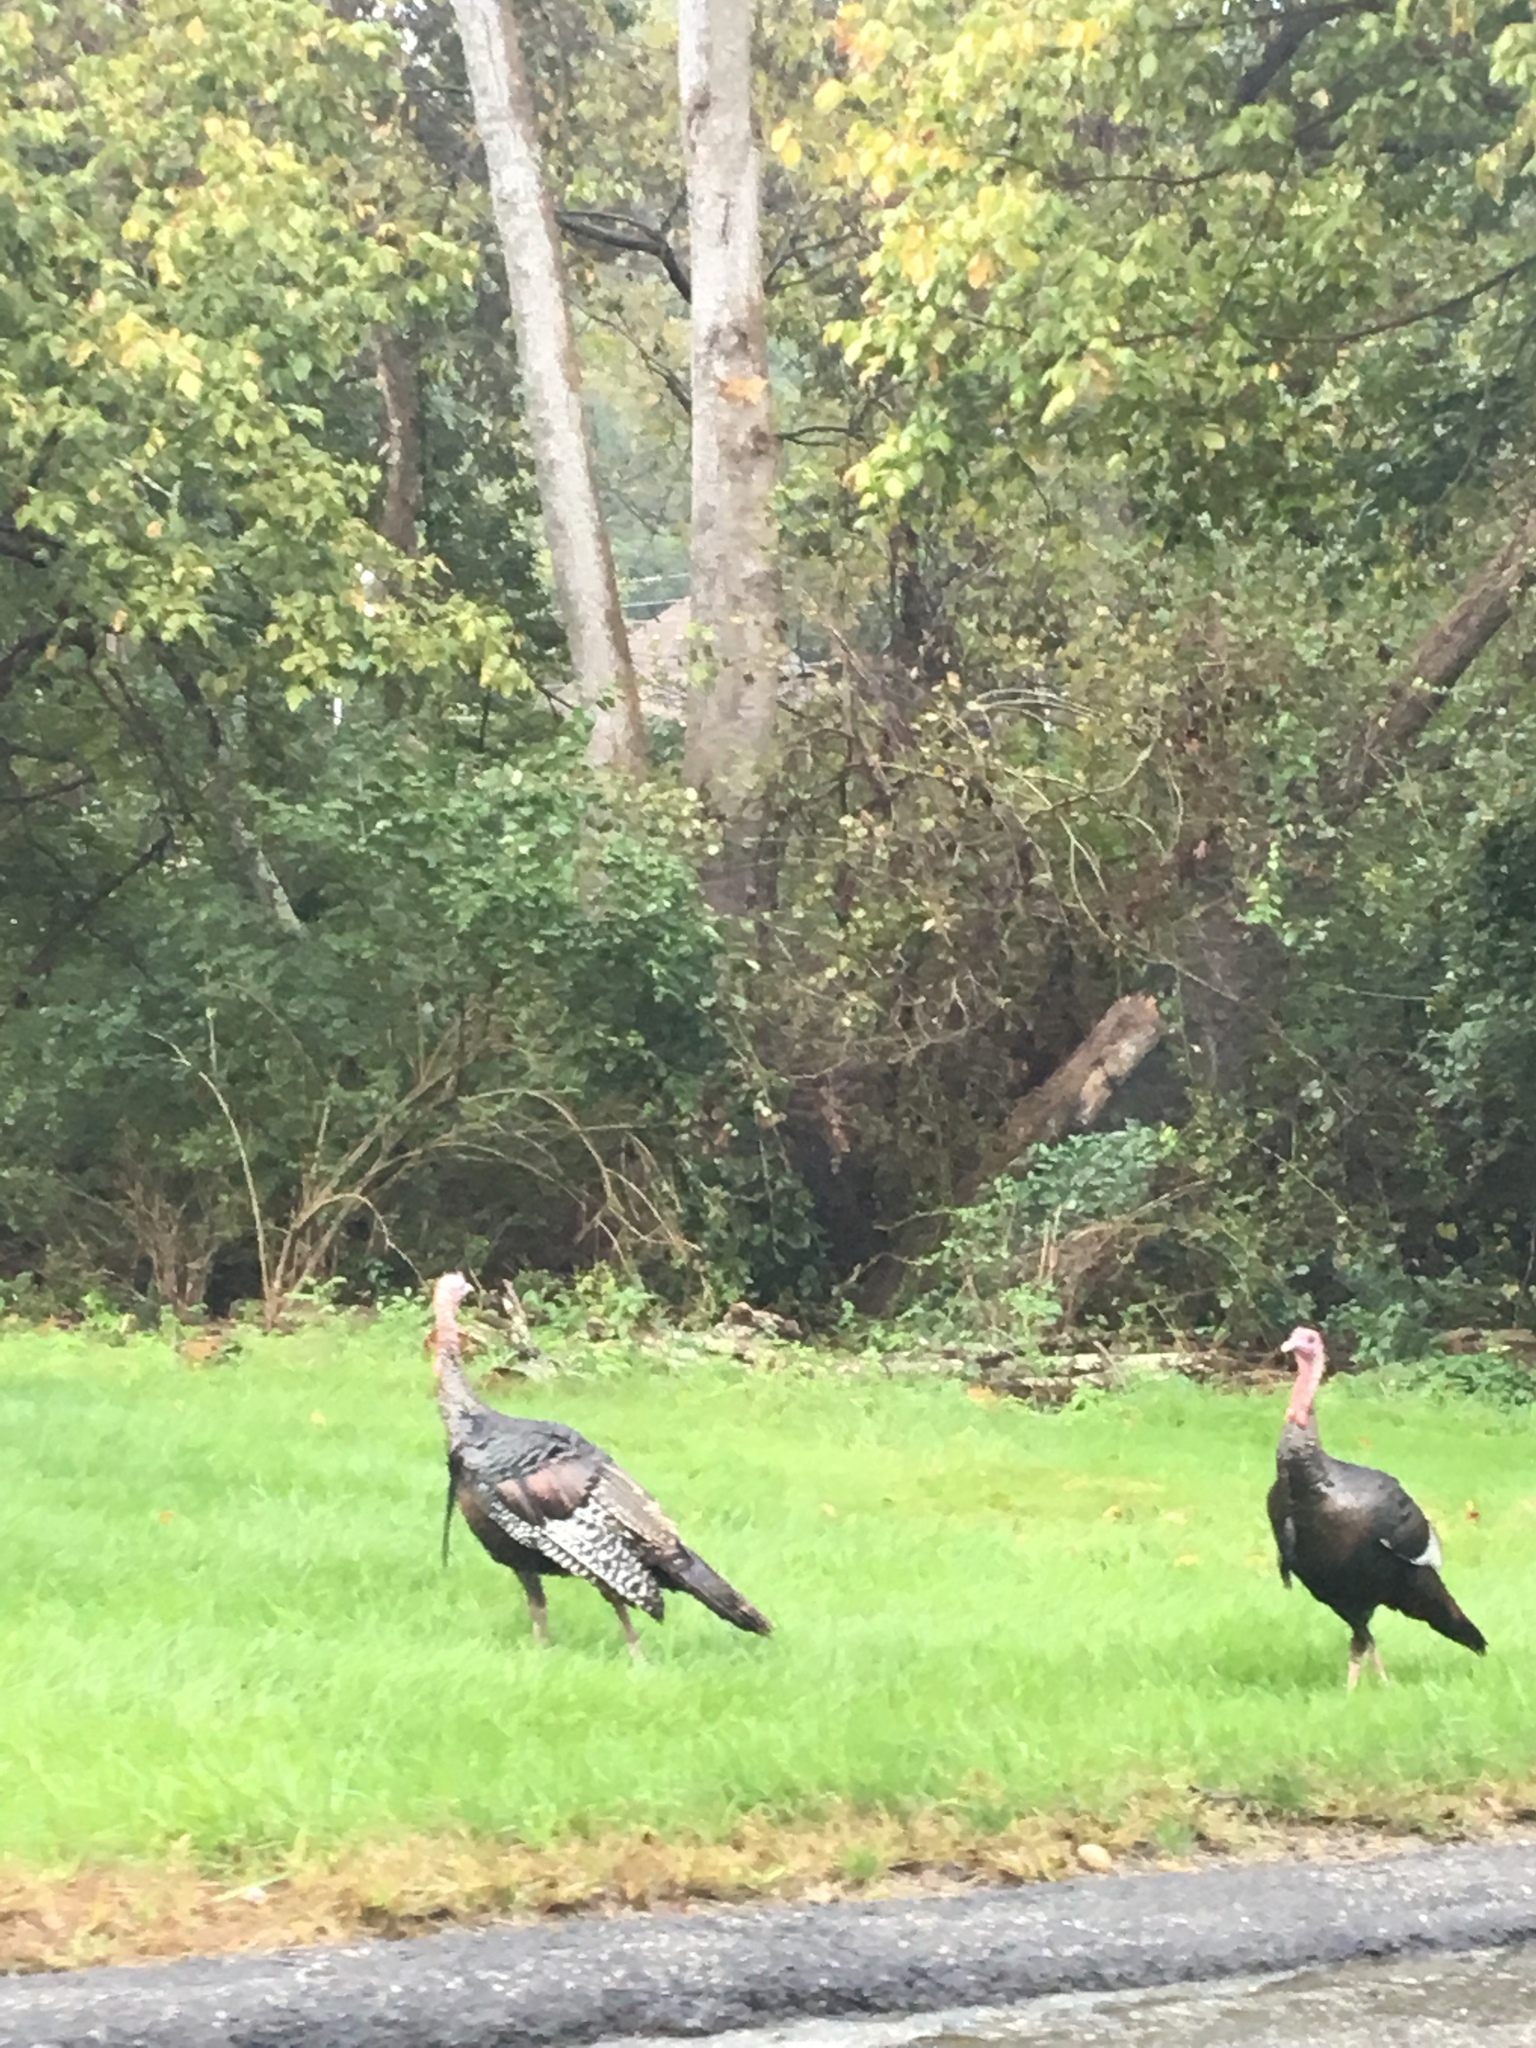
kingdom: Animalia
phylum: Chordata
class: Aves
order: Galliformes
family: Phasianidae
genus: Meleagris
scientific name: Meleagris gallopavo
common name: Wild turkey
